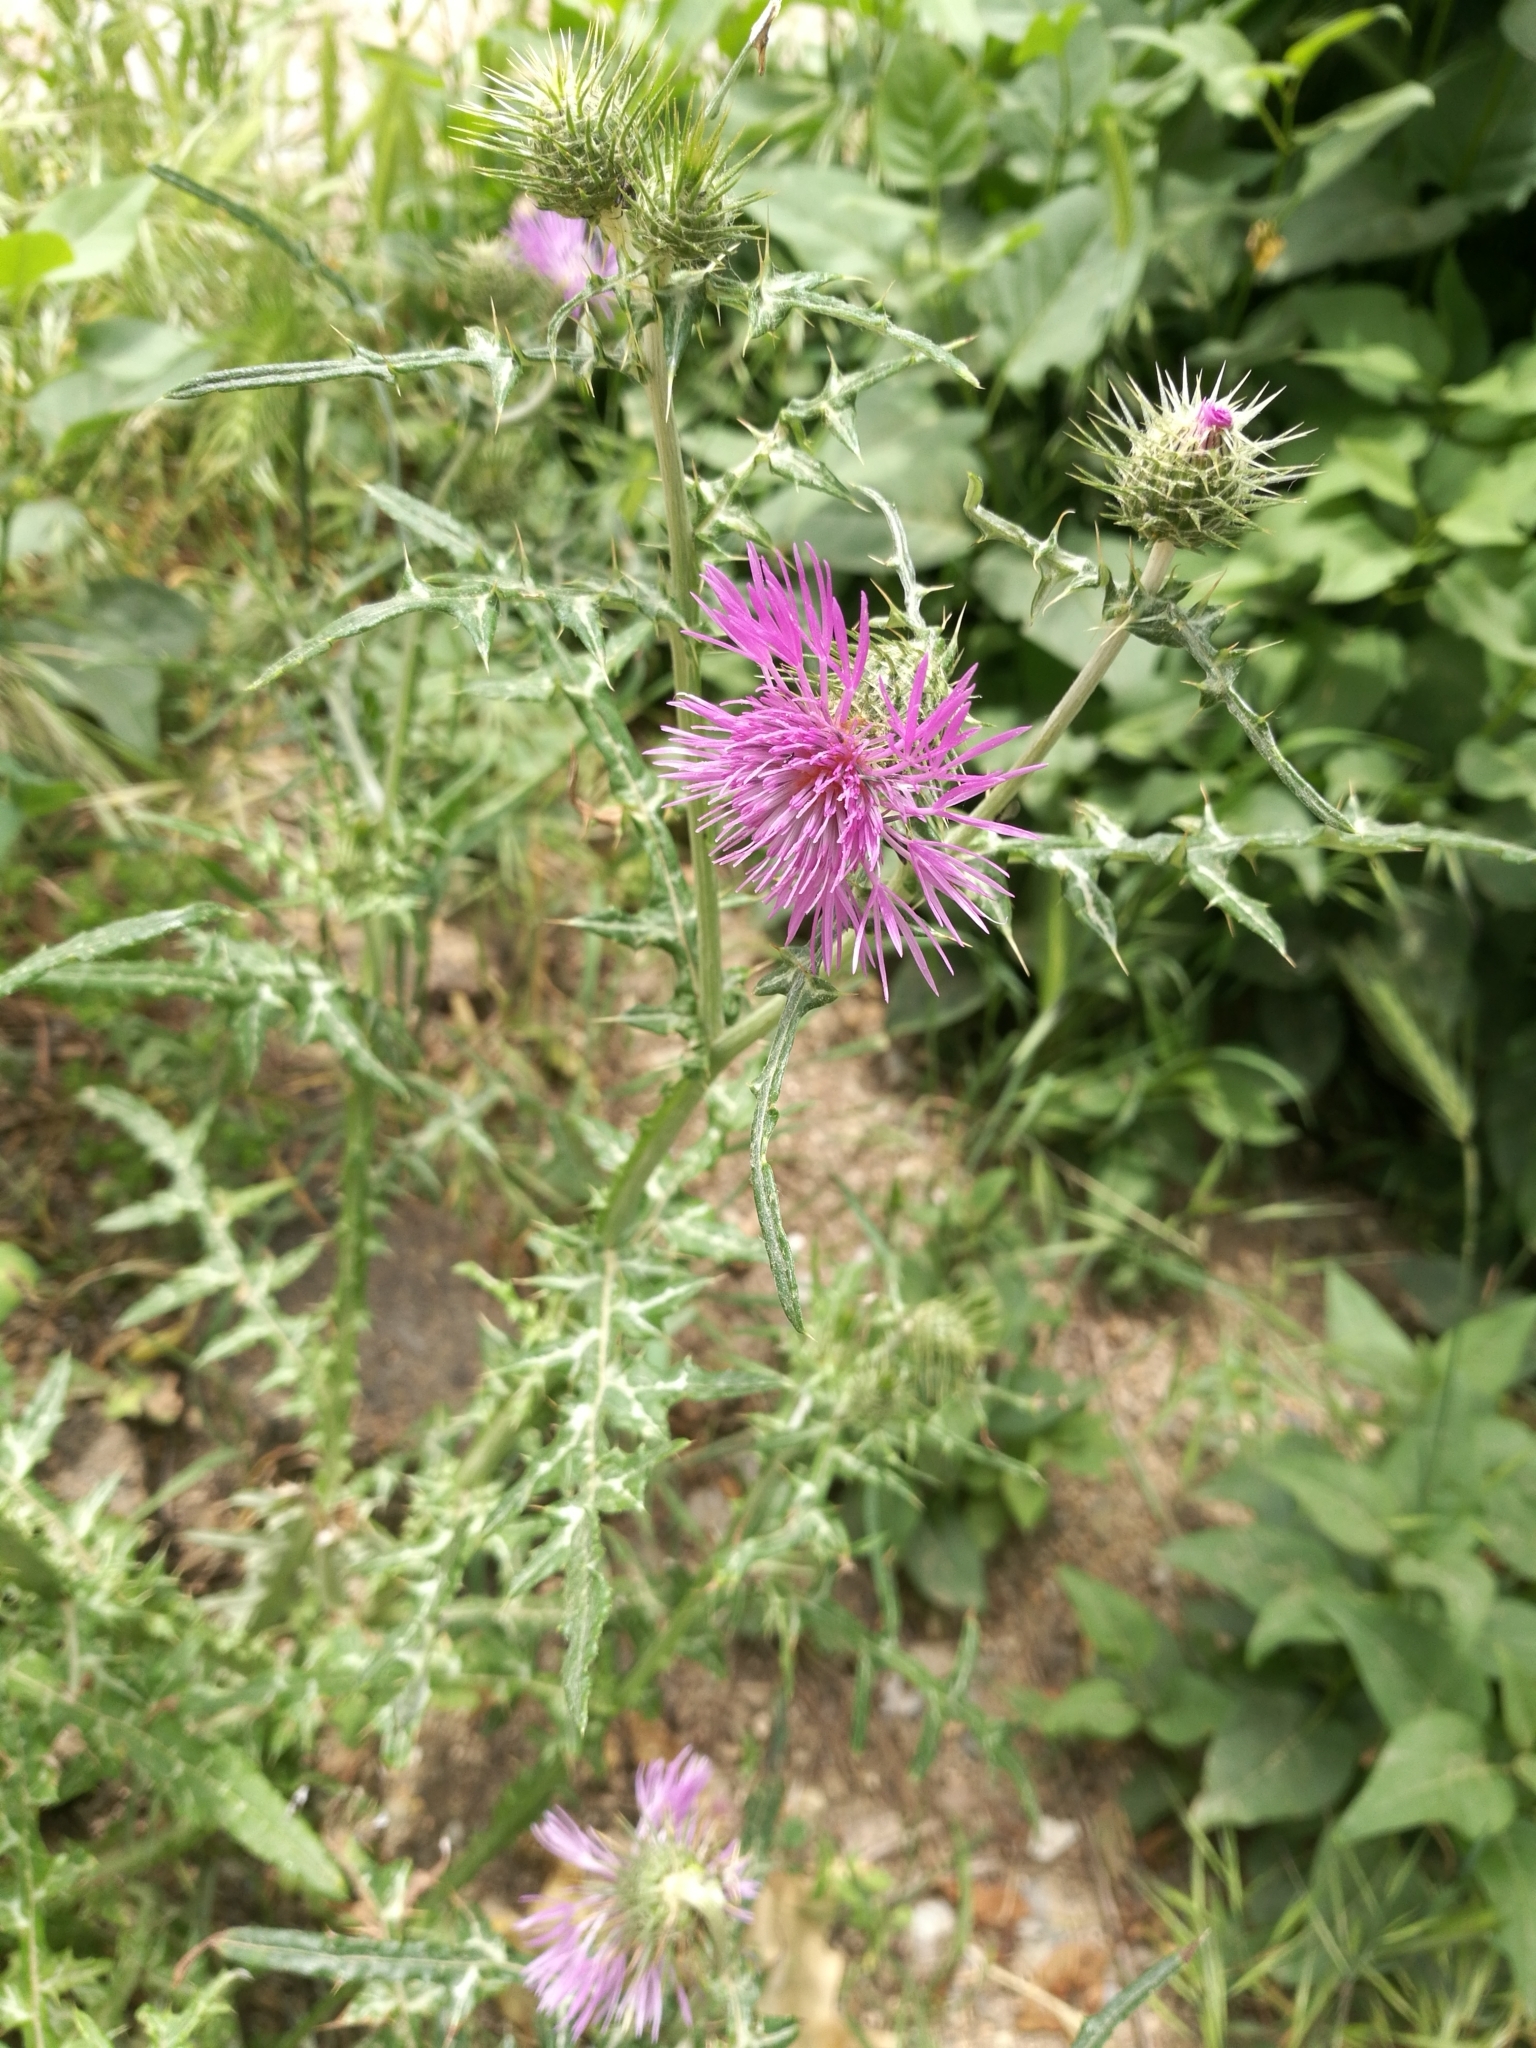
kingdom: Plantae
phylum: Tracheophyta
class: Magnoliopsida
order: Asterales
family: Asteraceae
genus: Galactites
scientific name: Galactites tomentosa
